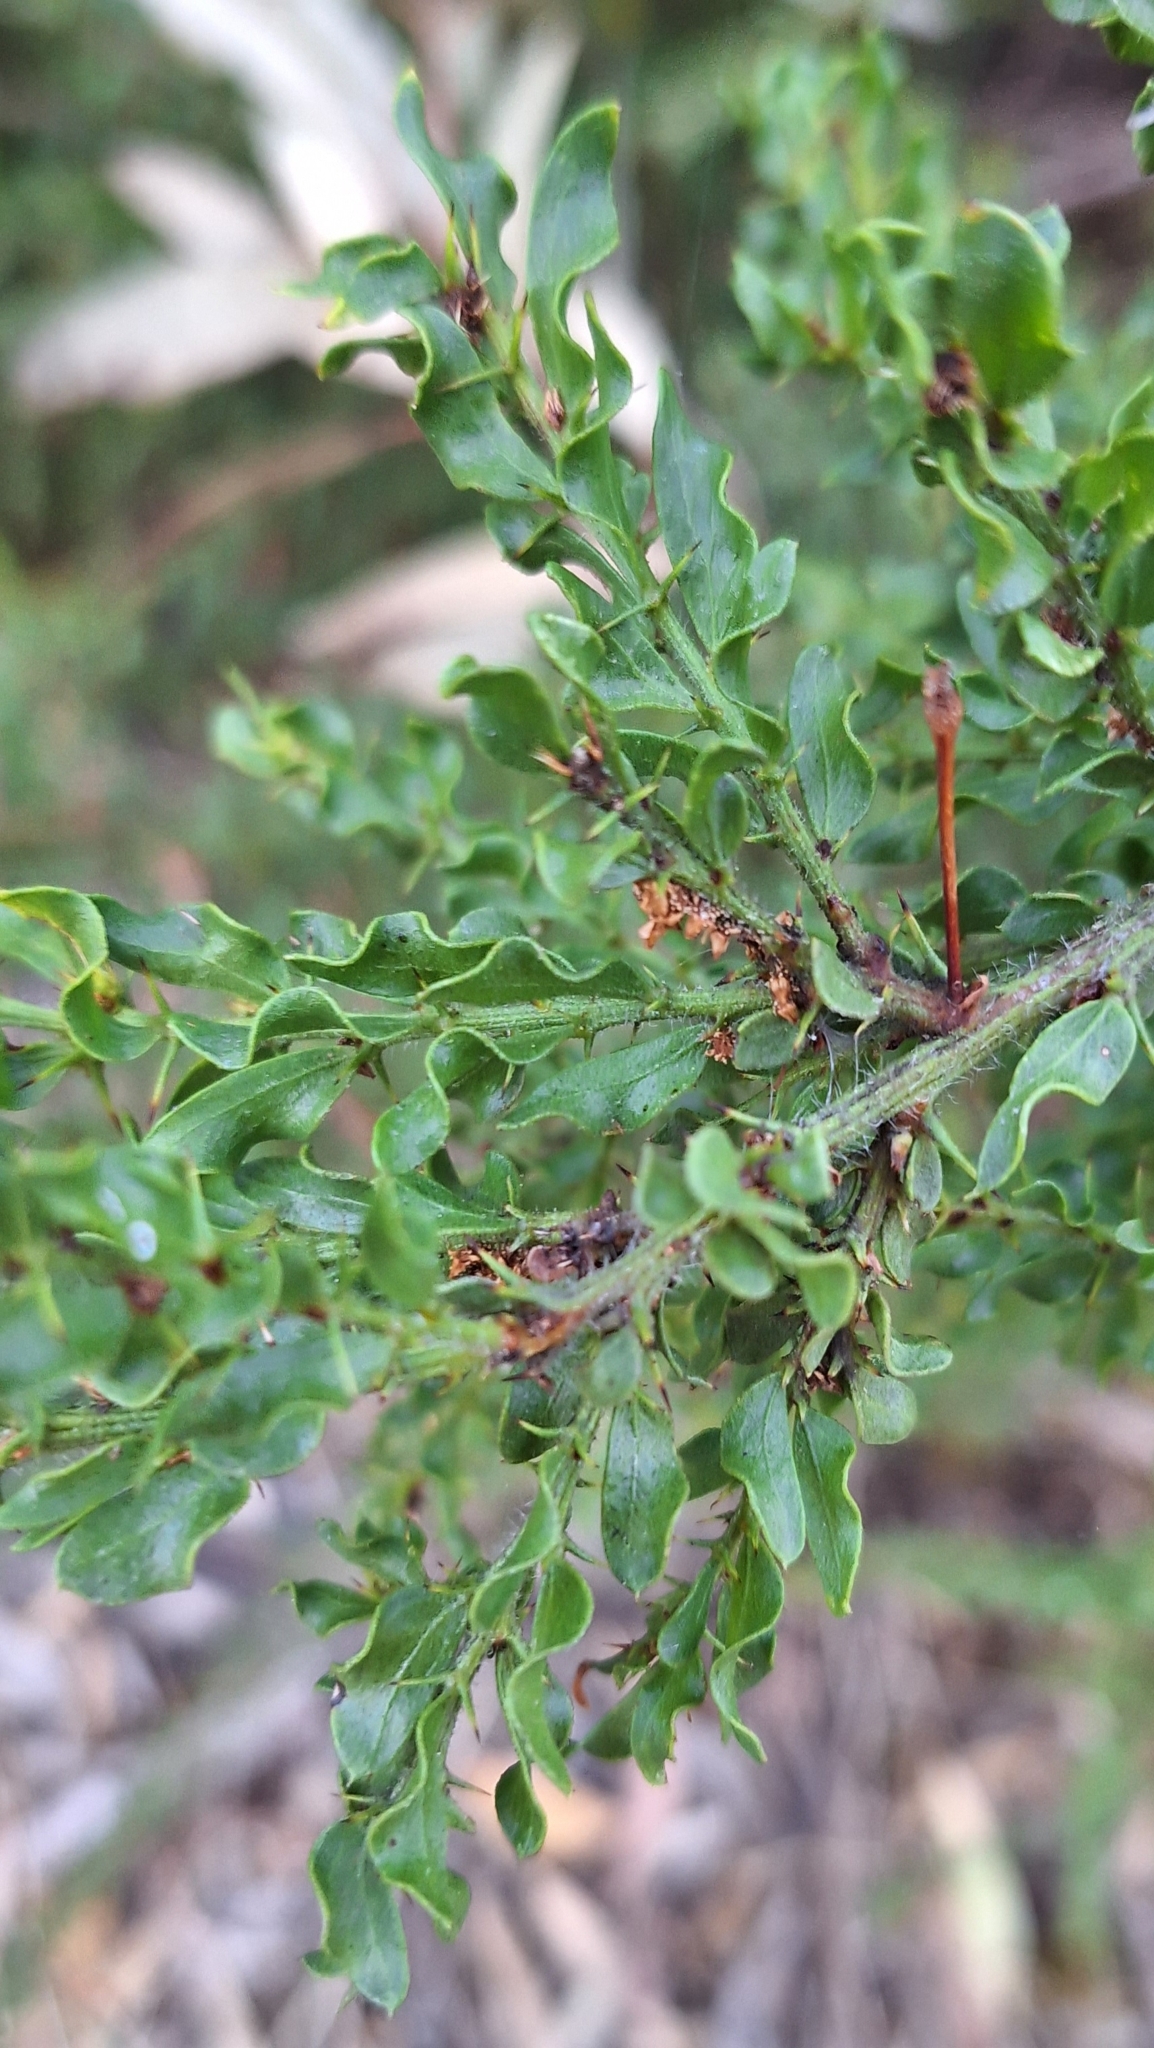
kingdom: Plantae
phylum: Tracheophyta
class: Magnoliopsida
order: Fabales
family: Fabaceae
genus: Acacia
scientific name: Acacia paradoxa
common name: Paradox acacia
